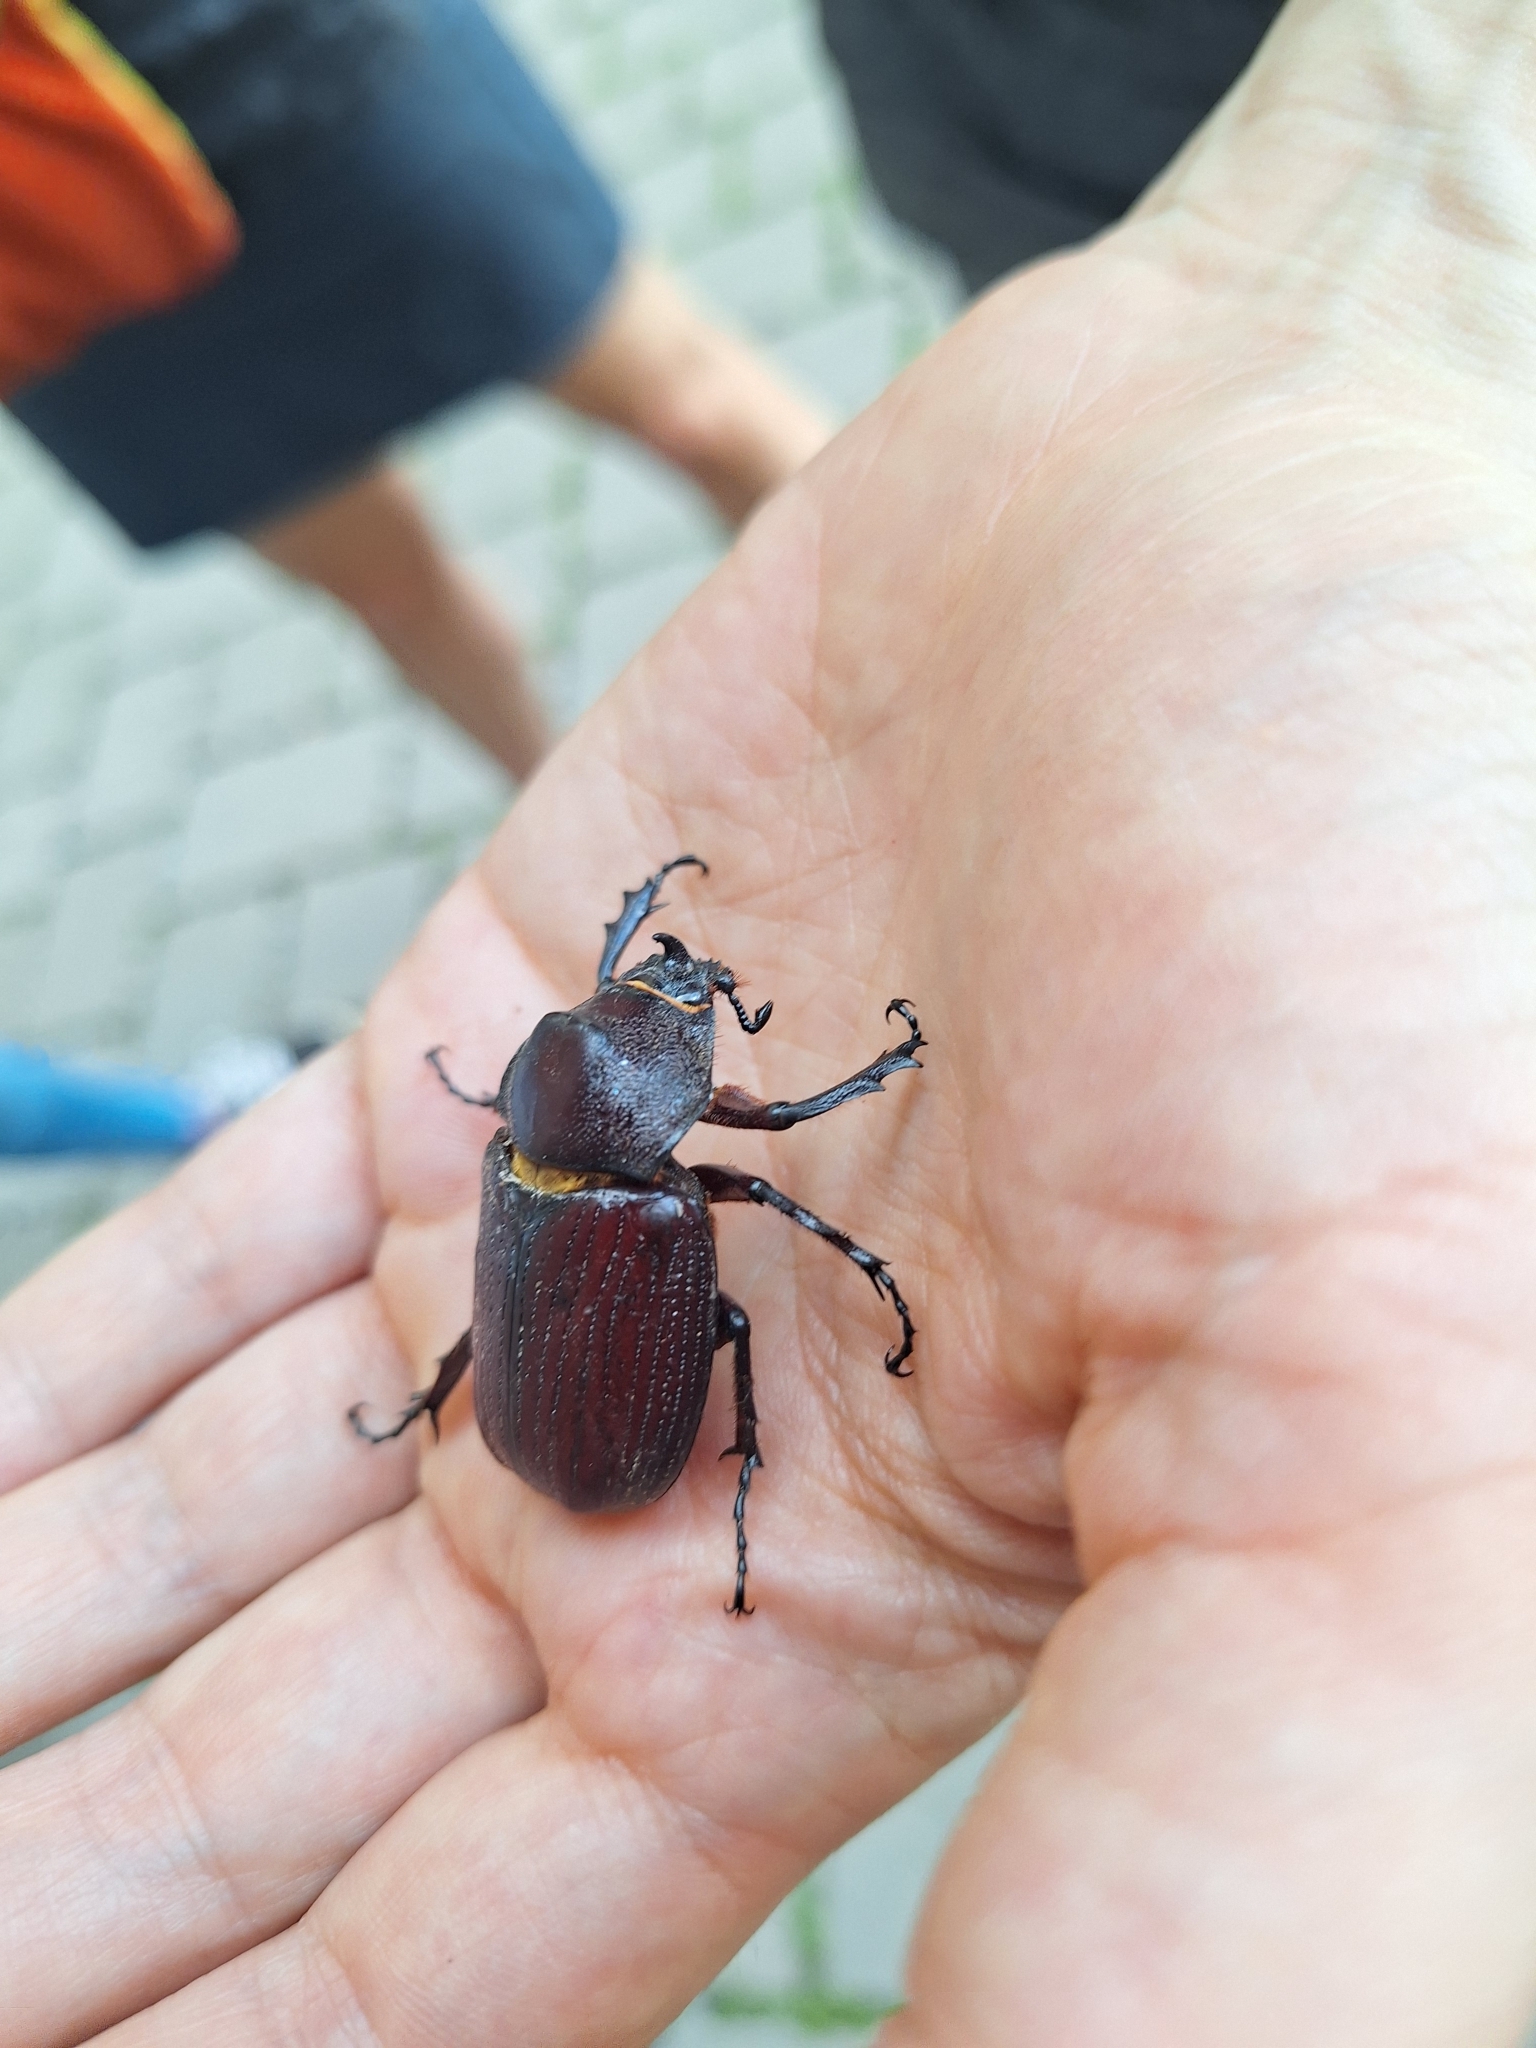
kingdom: Animalia
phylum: Arthropoda
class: Insecta
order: Coleoptera
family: Scarabaeidae
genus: Coelosis
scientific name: Coelosis biloba
